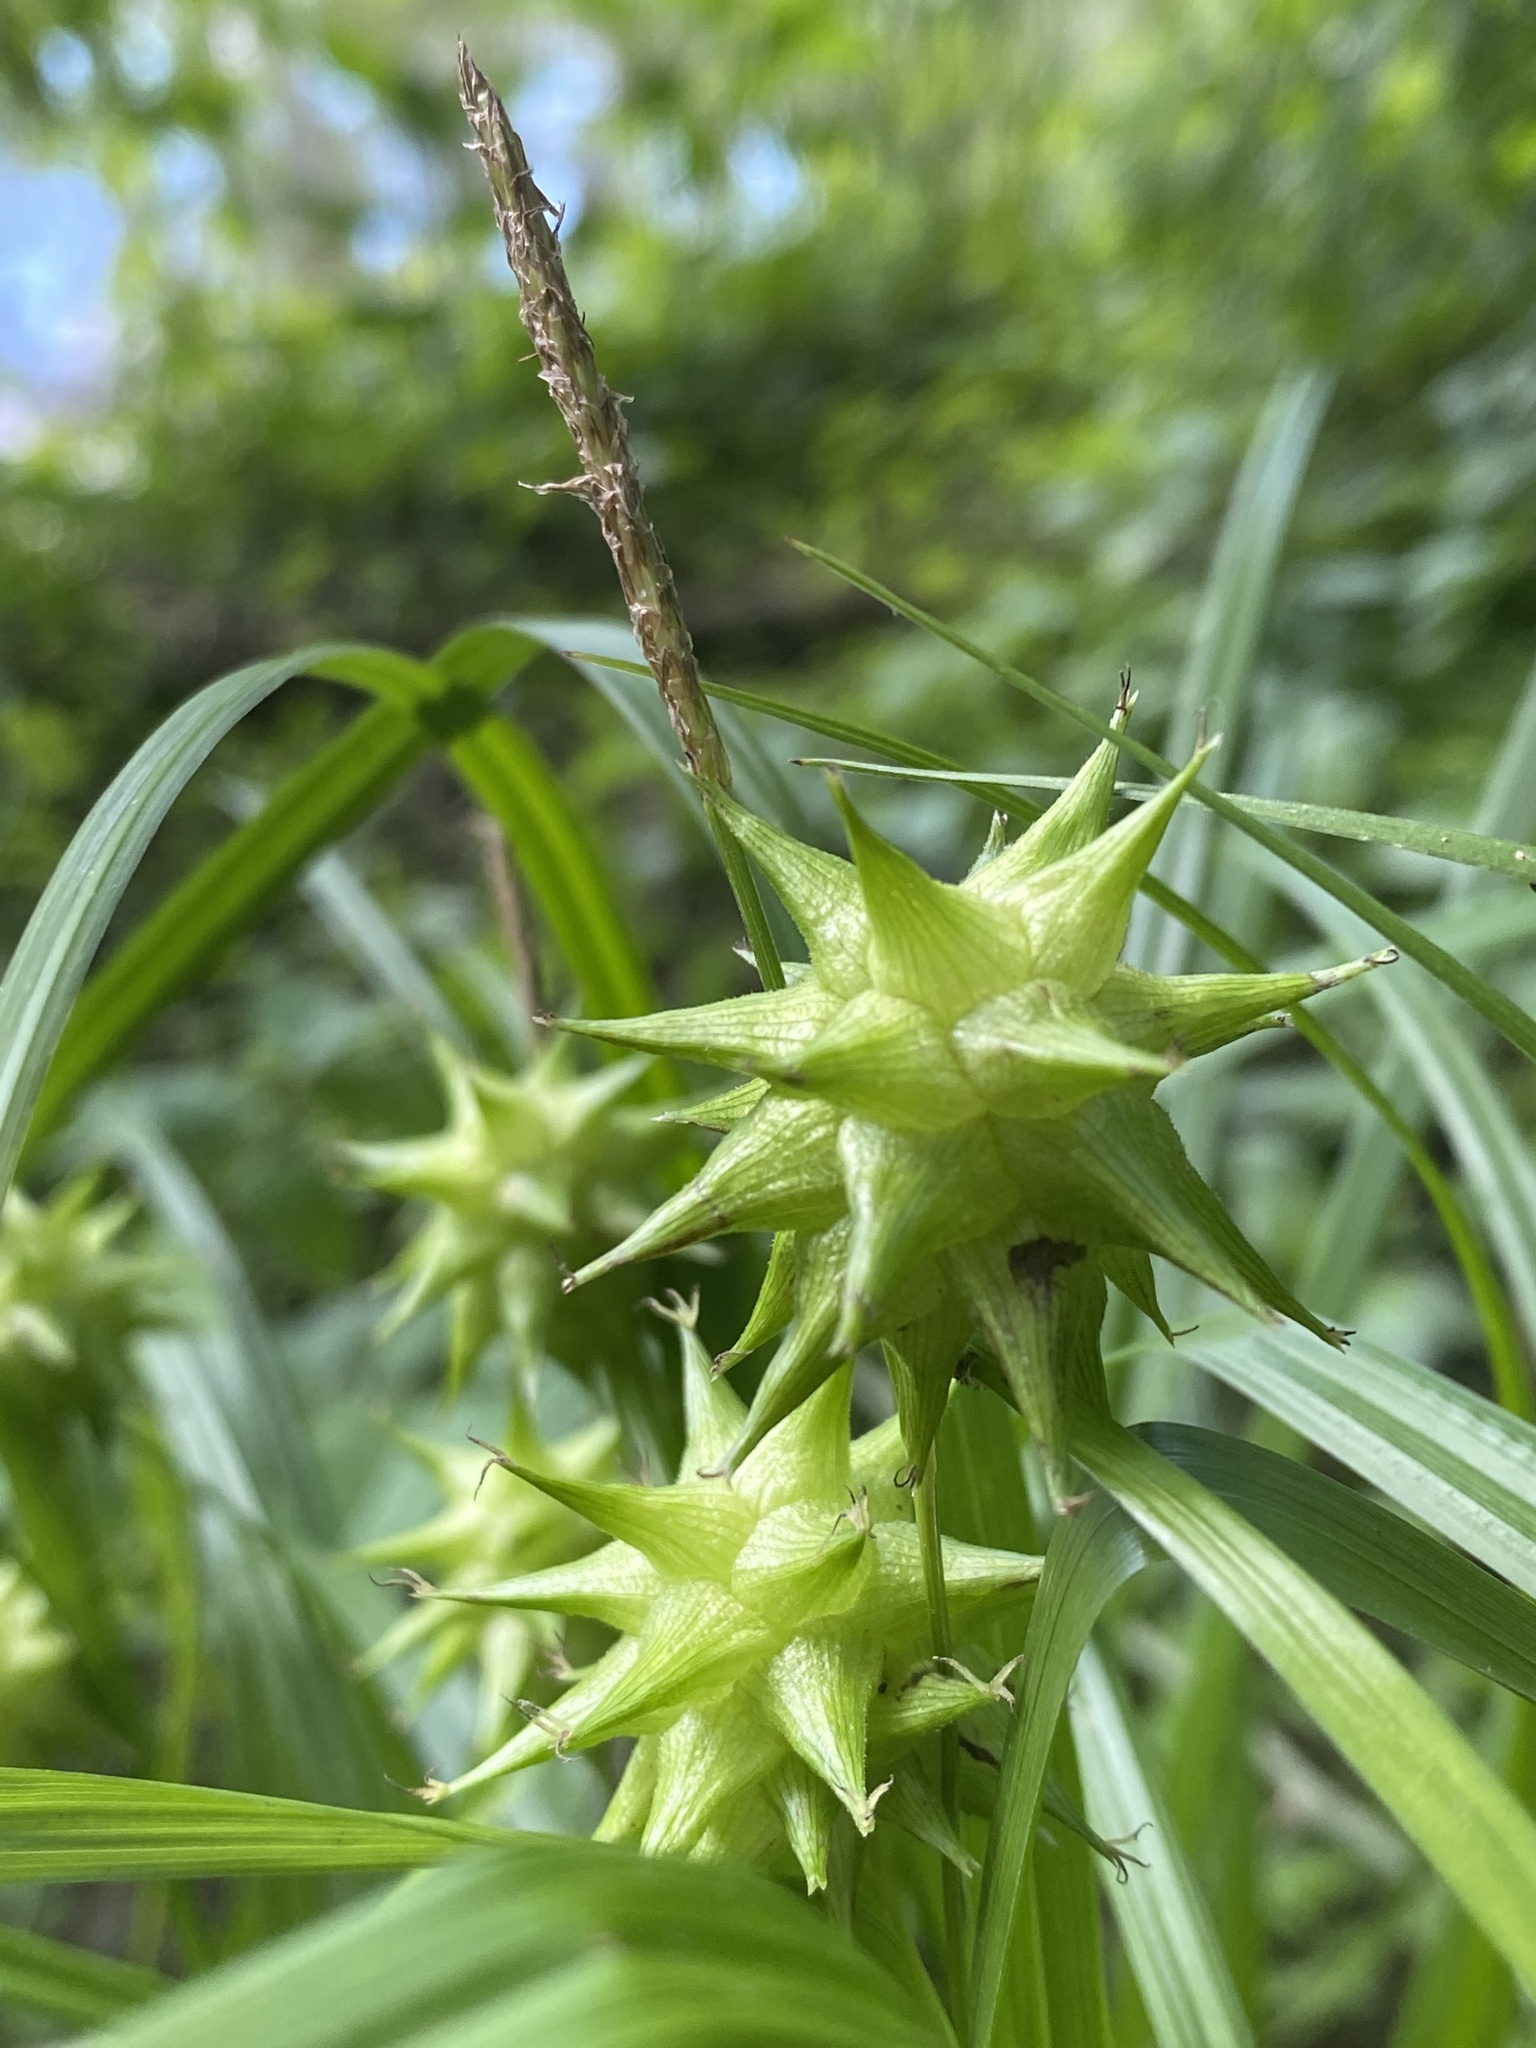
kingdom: Plantae
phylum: Tracheophyta
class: Liliopsida
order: Poales
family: Cyperaceae
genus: Carex
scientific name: Carex grayi
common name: Asa gray's sedge
